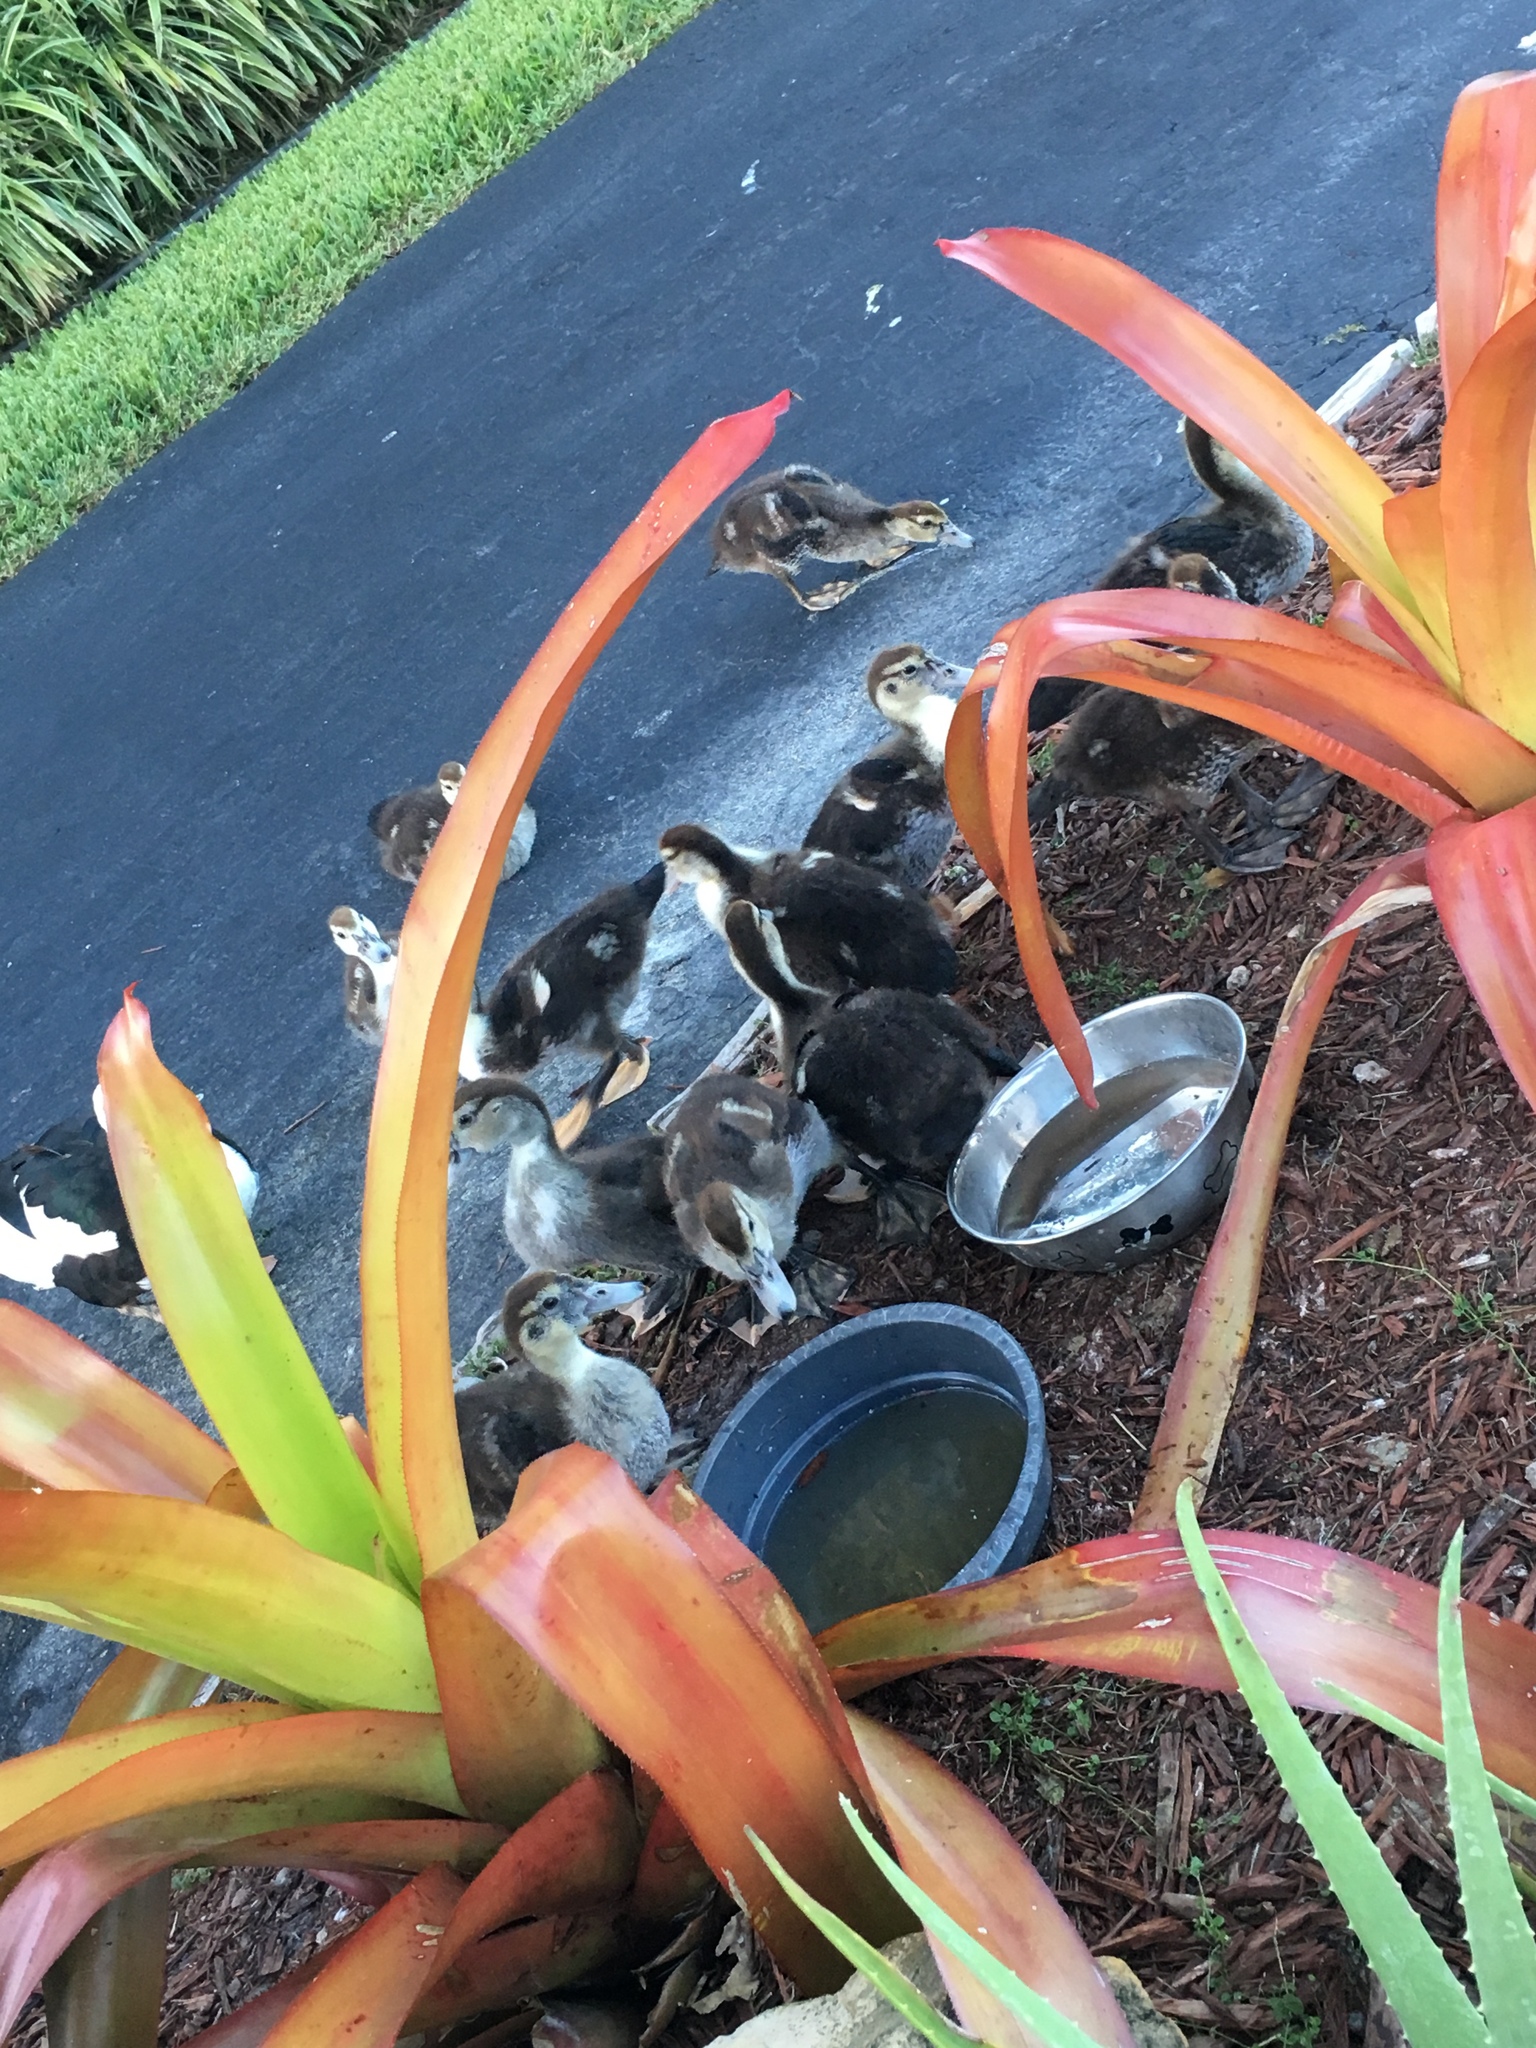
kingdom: Animalia
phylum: Chordata
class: Aves
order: Anseriformes
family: Anatidae
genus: Cairina
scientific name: Cairina moschata
